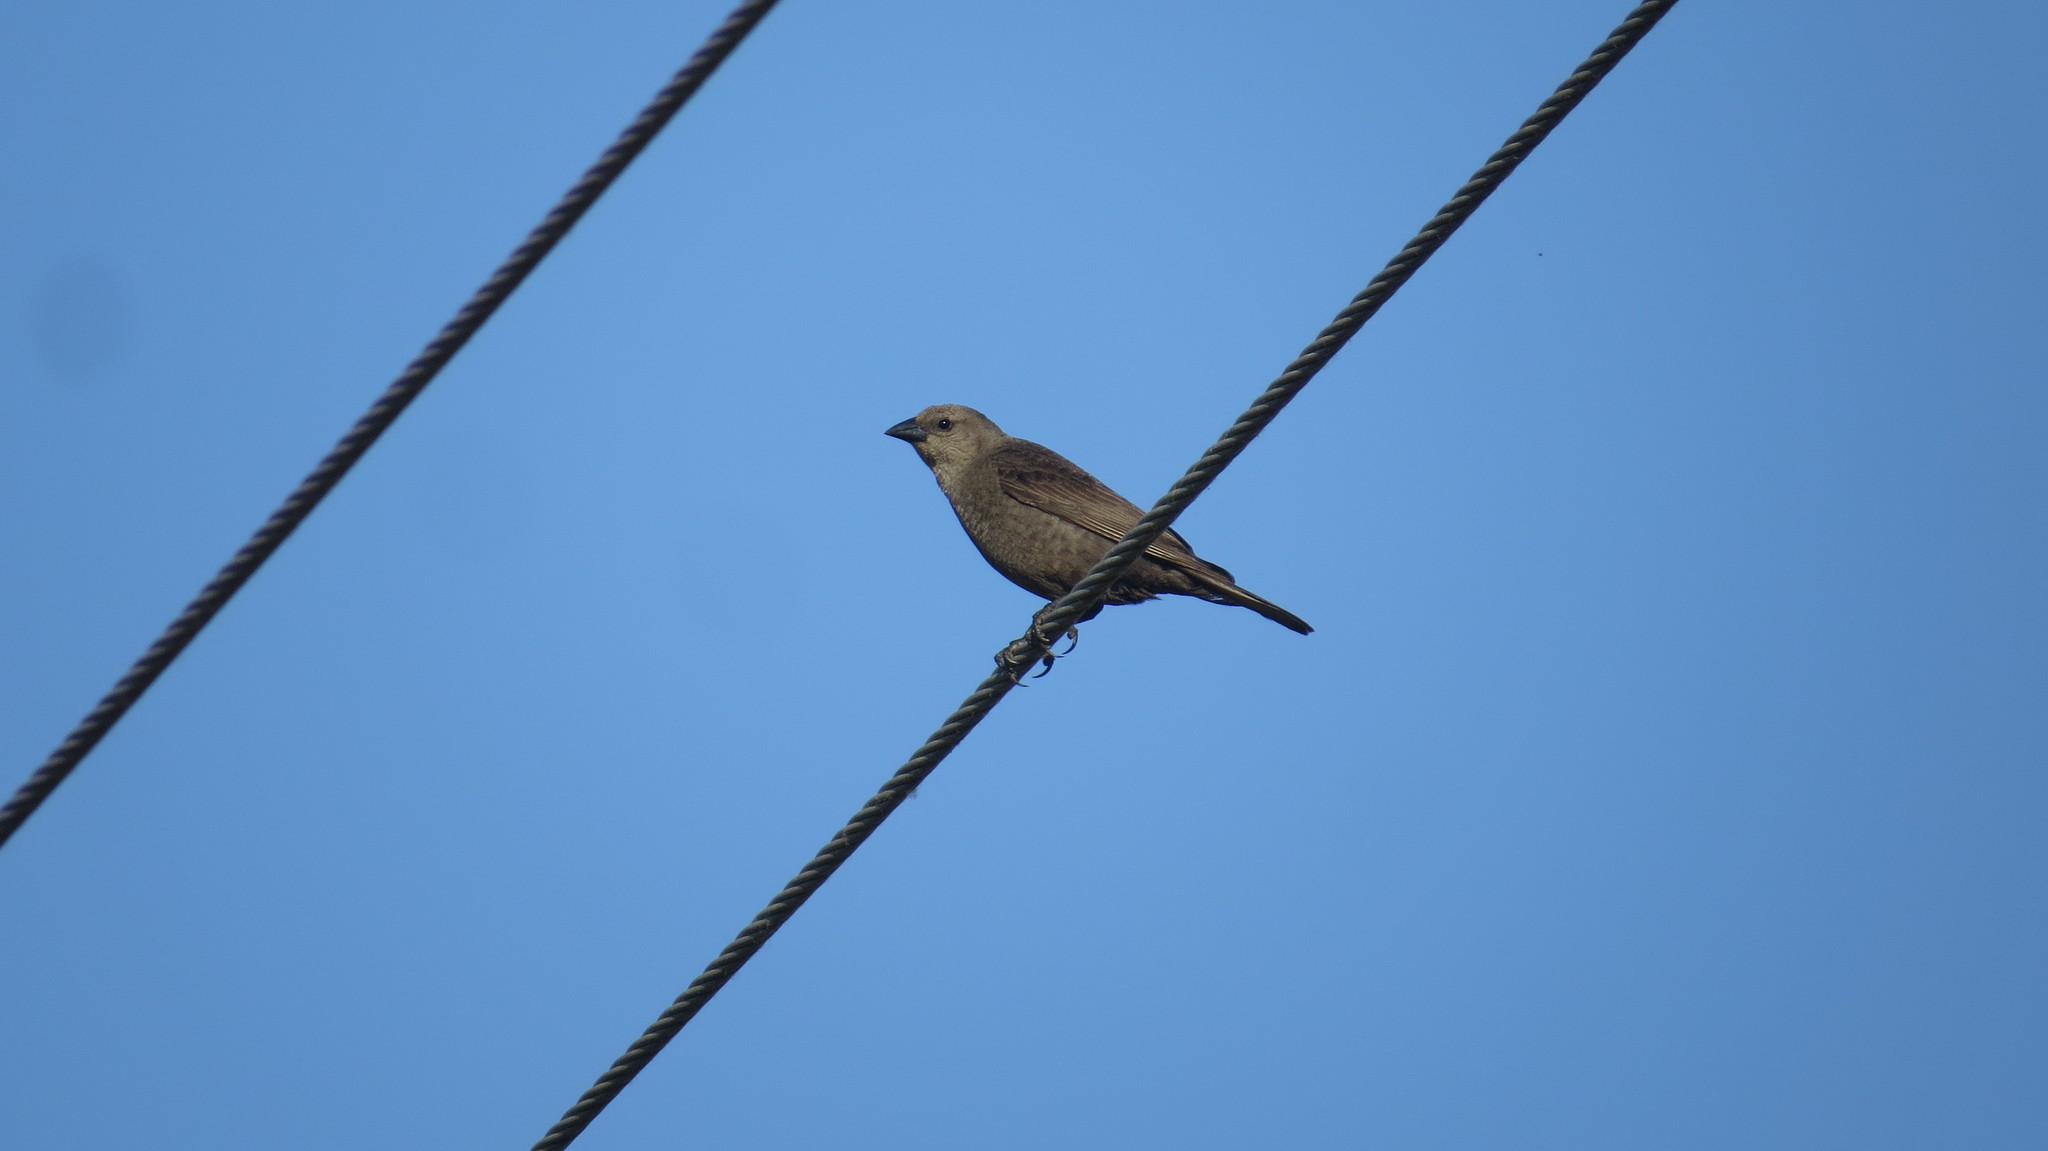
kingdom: Animalia
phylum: Chordata
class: Aves
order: Passeriformes
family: Icteridae
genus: Molothrus
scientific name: Molothrus bonariensis
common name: Shiny cowbird
